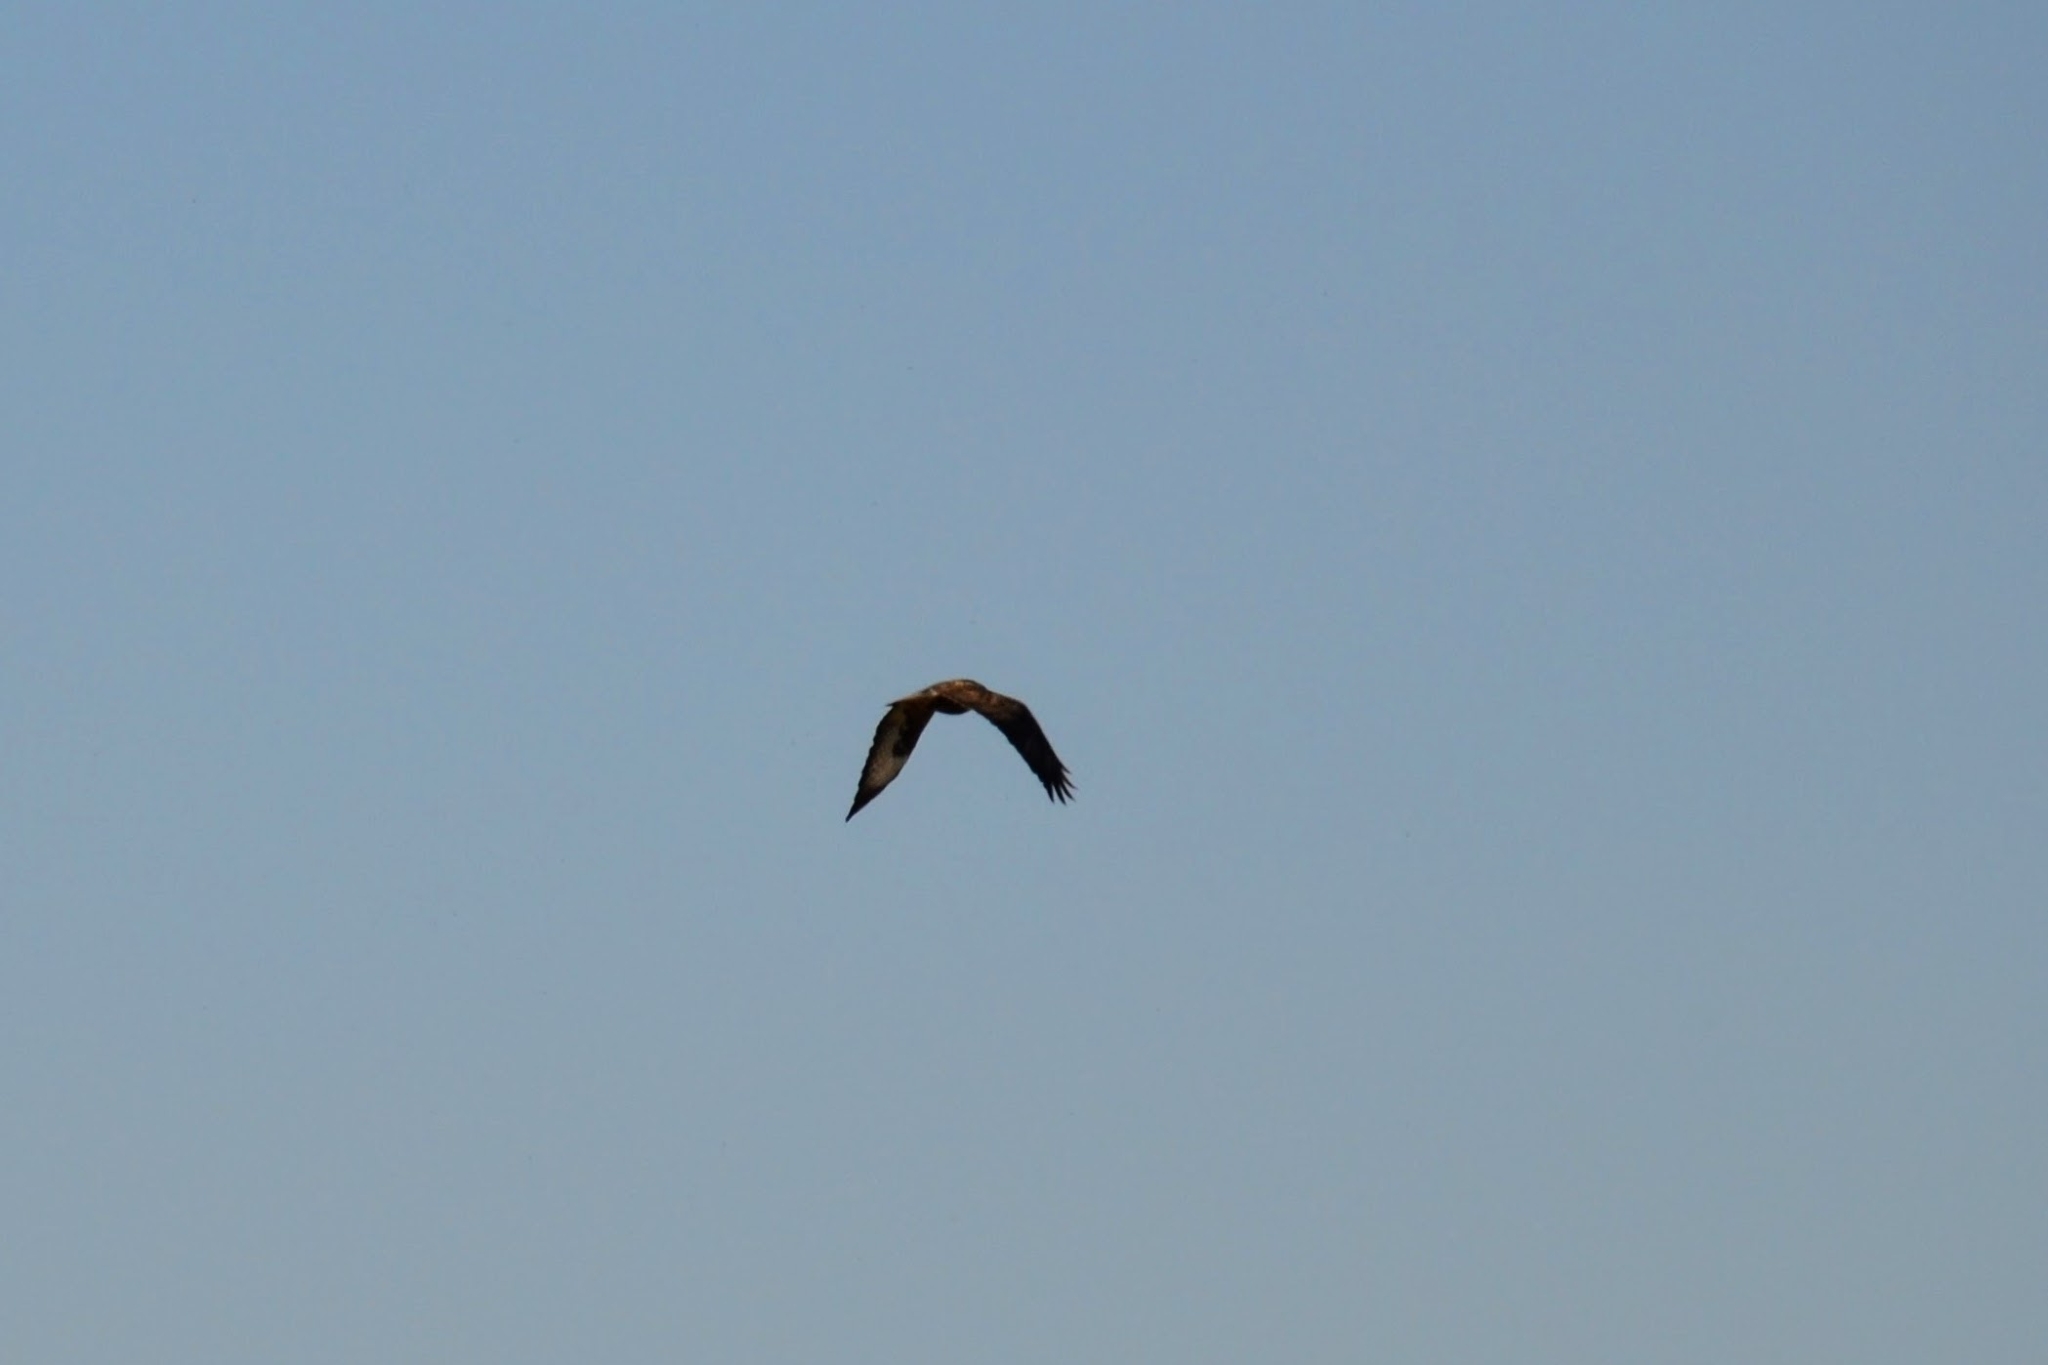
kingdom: Animalia
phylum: Chordata
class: Aves
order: Accipitriformes
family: Accipitridae
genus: Buteo
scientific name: Buteo buteo
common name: Common buzzard
